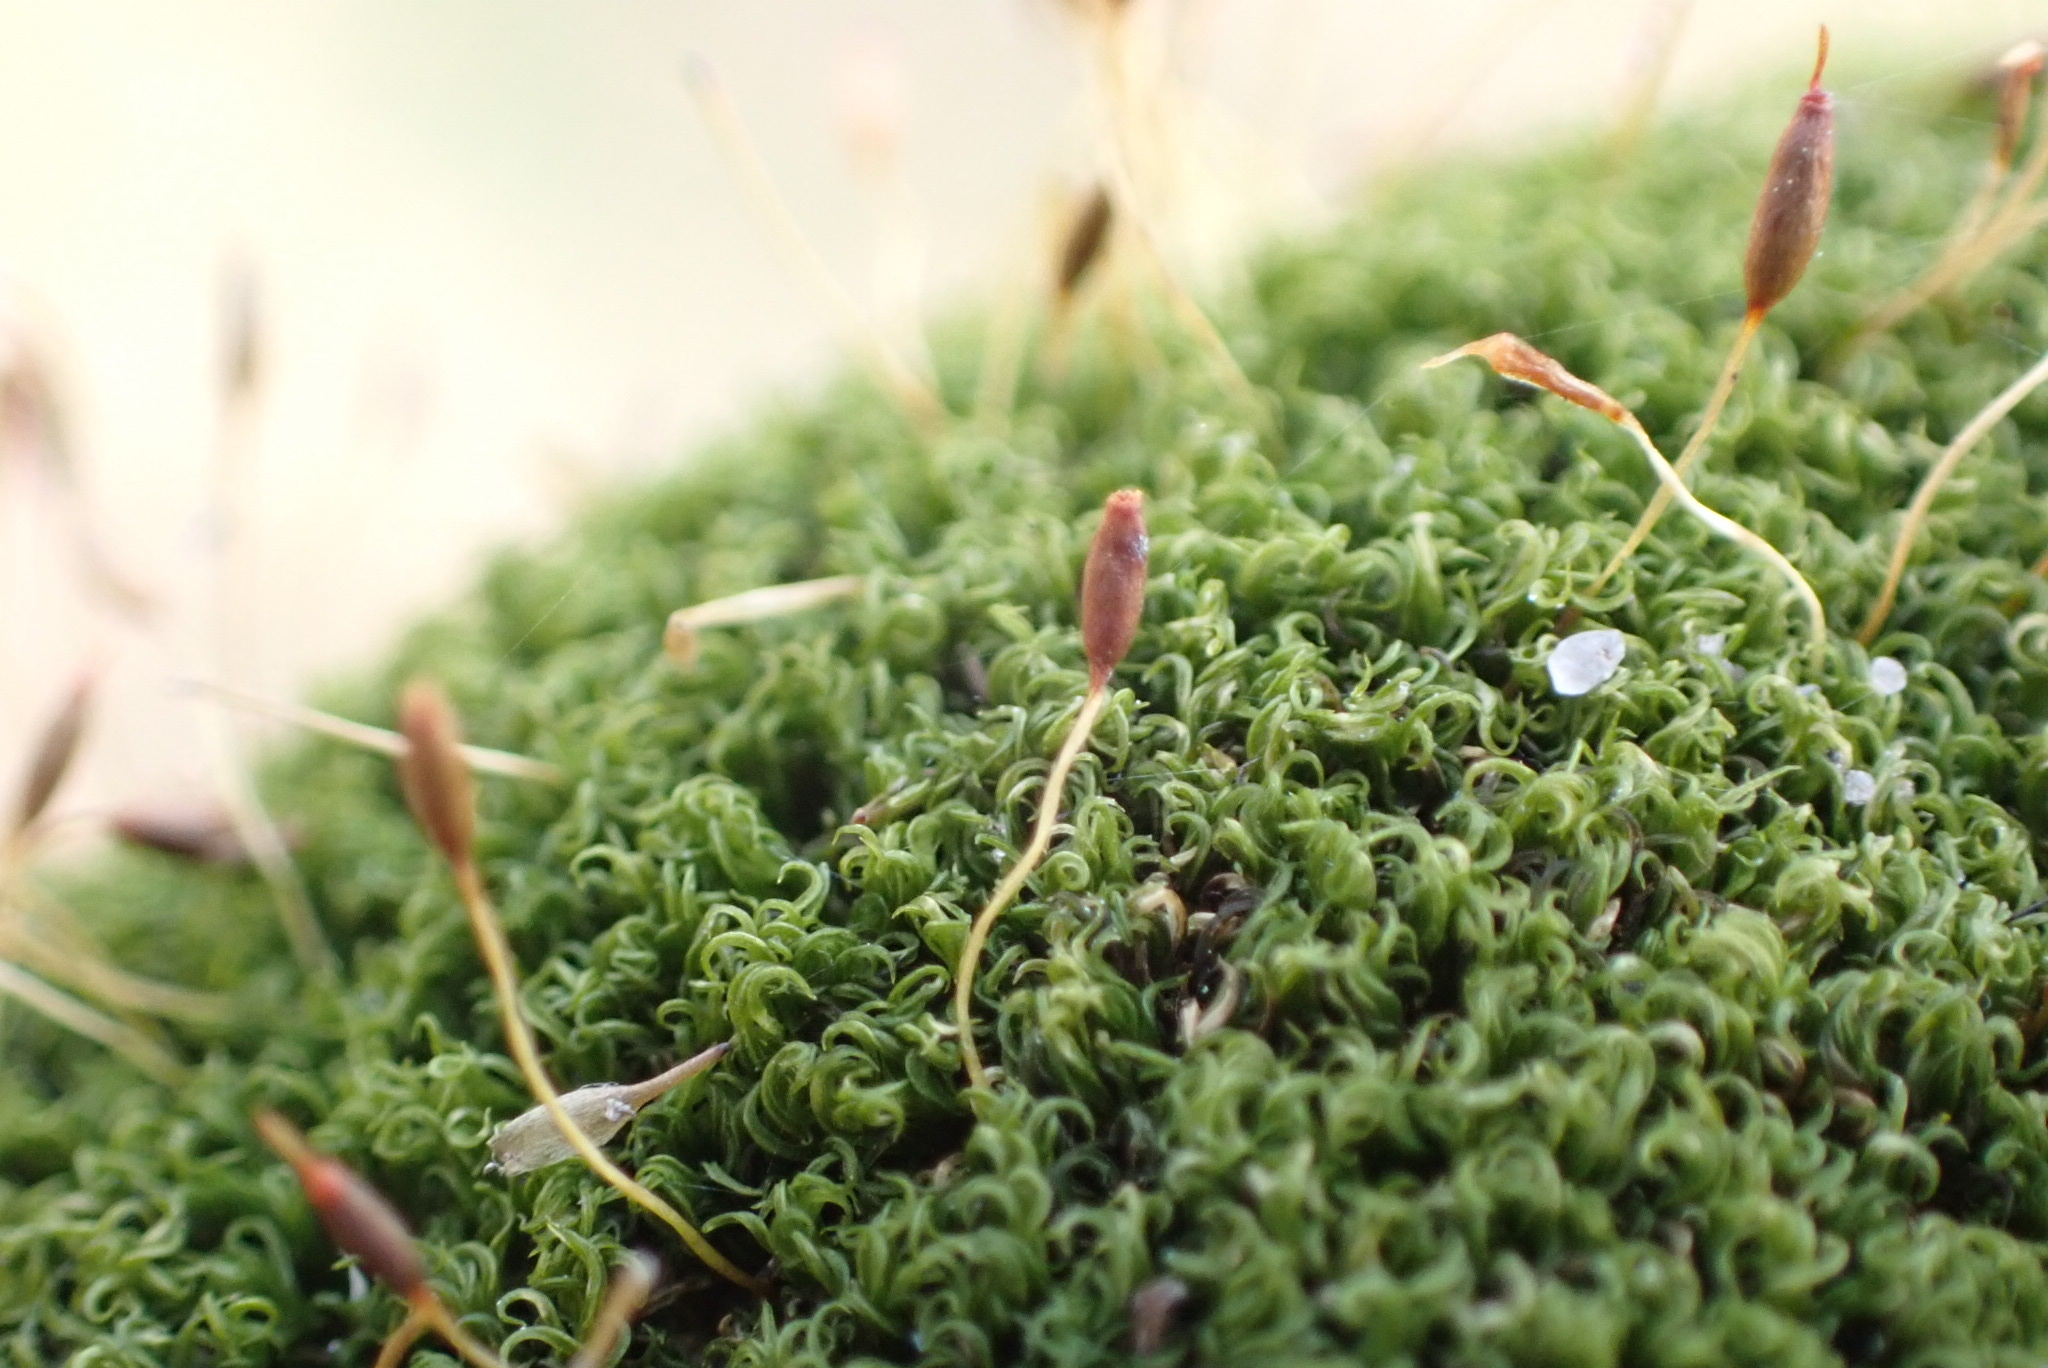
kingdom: Plantae
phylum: Bryophyta
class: Bryopsida
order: Dicranales
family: Rhabdoweisiaceae
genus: Dicranoweisia
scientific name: Dicranoweisia cirrata
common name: Common pincushion
